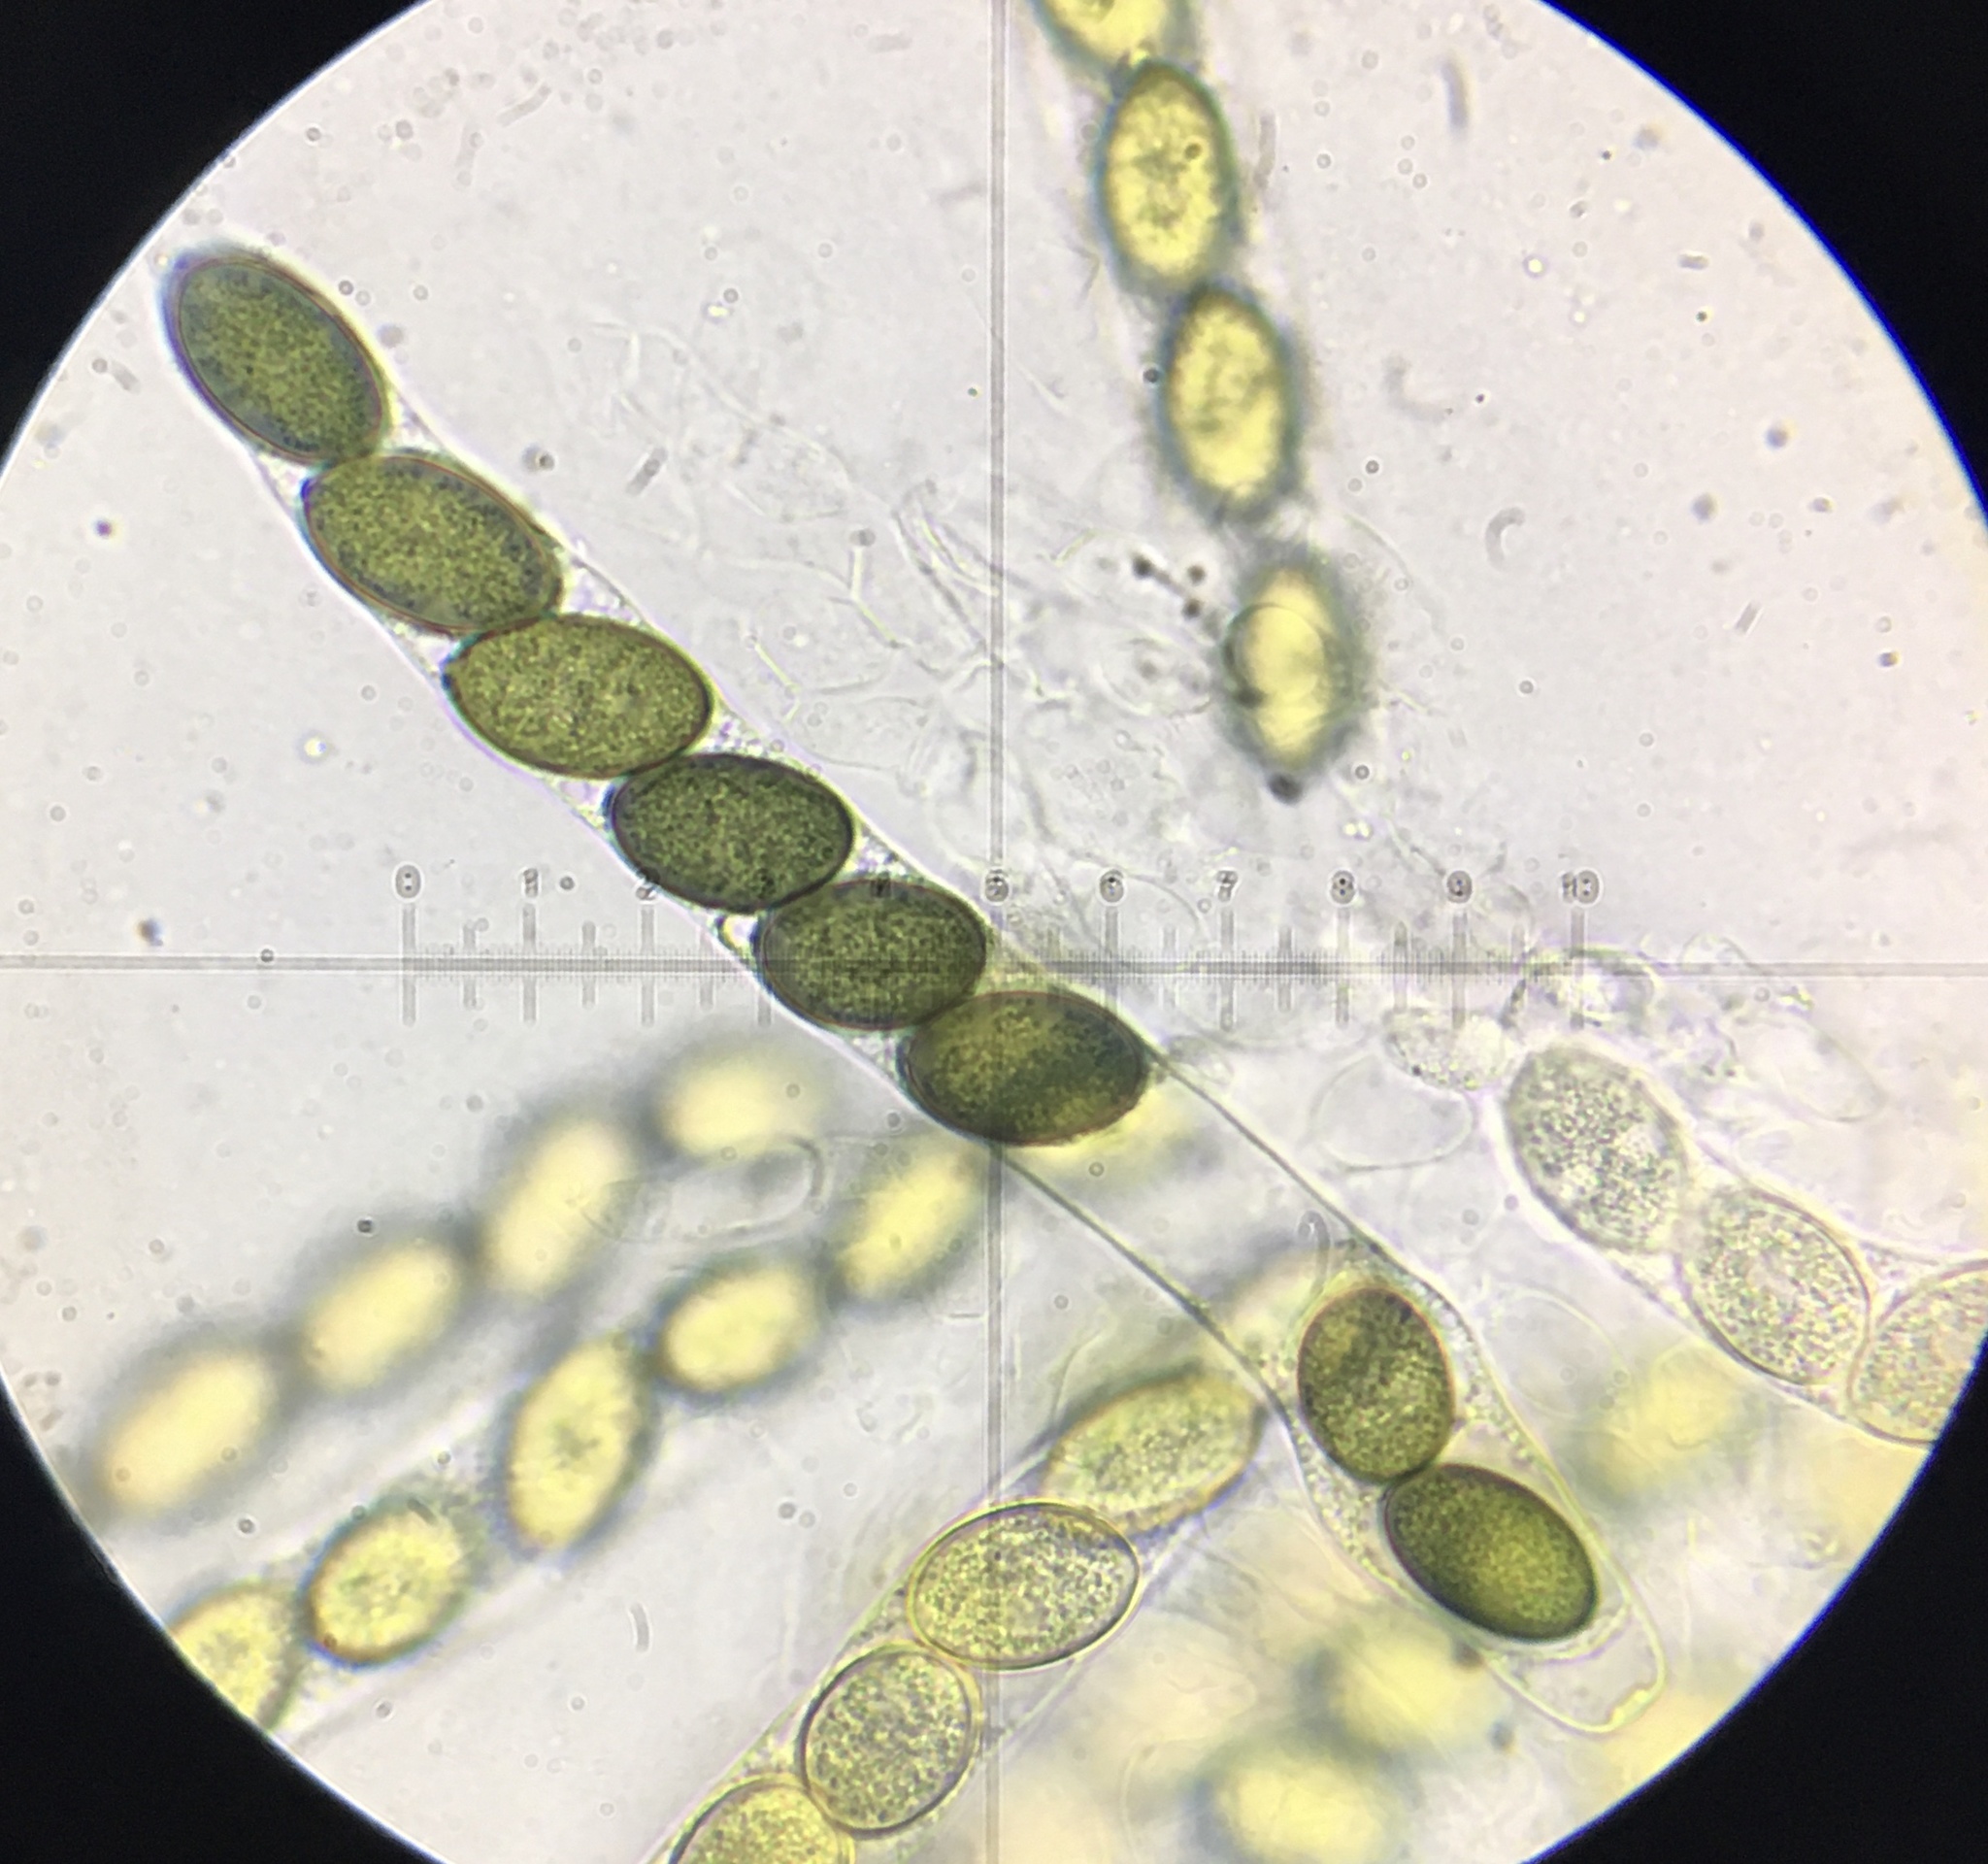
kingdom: Fungi
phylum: Ascomycota
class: Sordariomycetes
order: Sordariales
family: Sordariaceae
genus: Sordaria
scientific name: Sordaria fimicola
